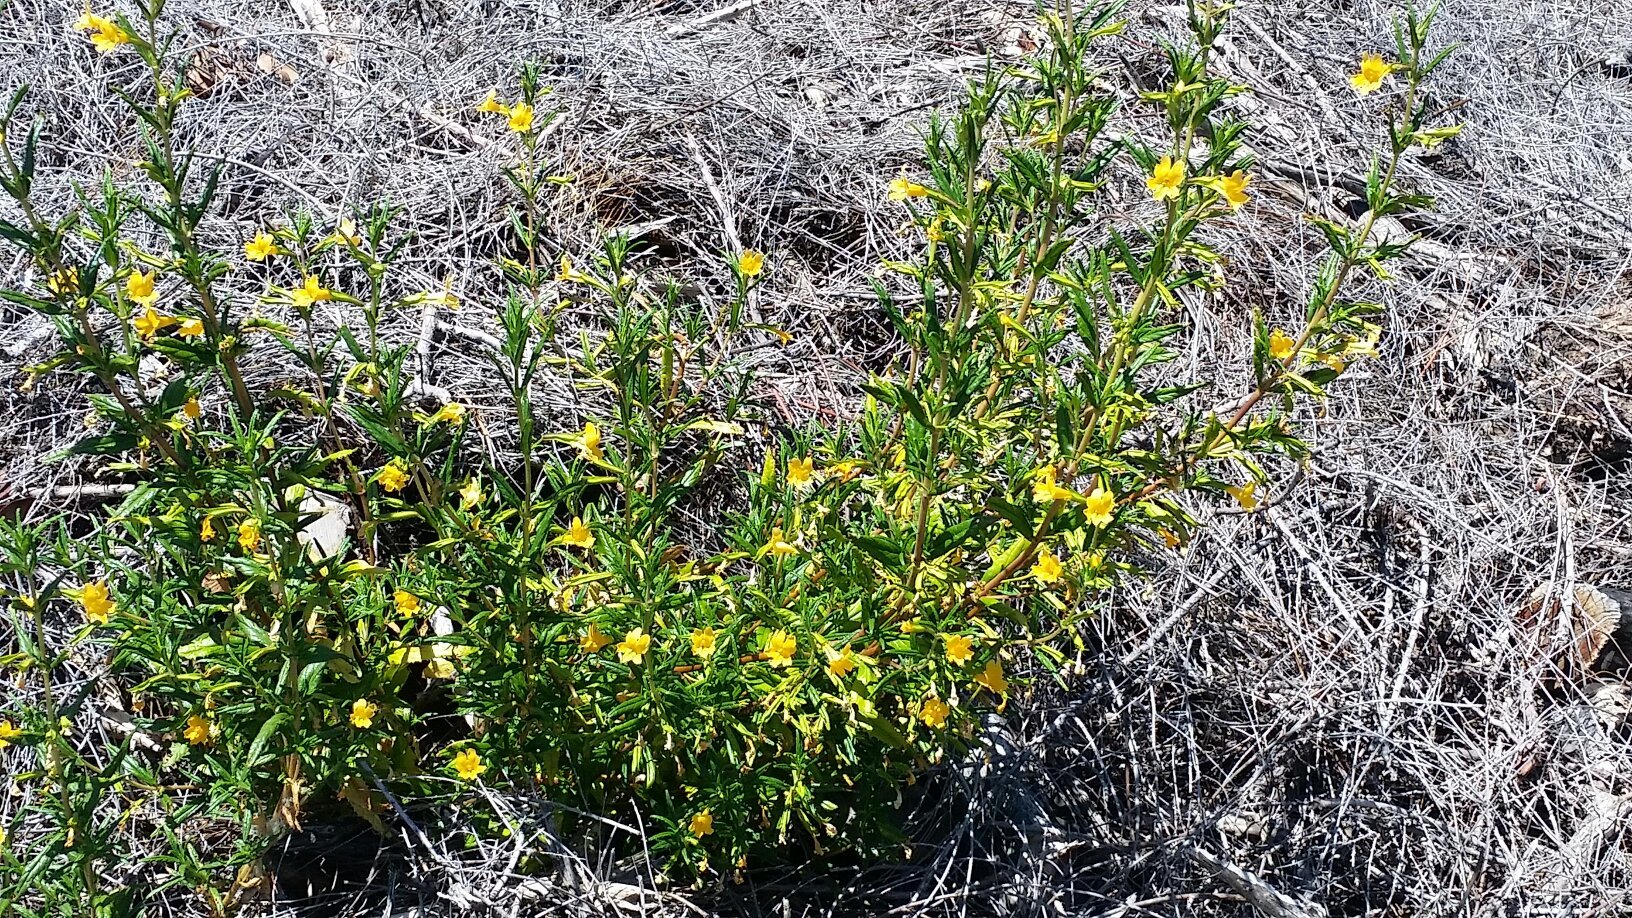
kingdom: Plantae
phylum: Tracheophyta
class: Magnoliopsida
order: Lamiales
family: Phrymaceae
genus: Diplacus
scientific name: Diplacus aurantiacus
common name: Bush monkey-flower
